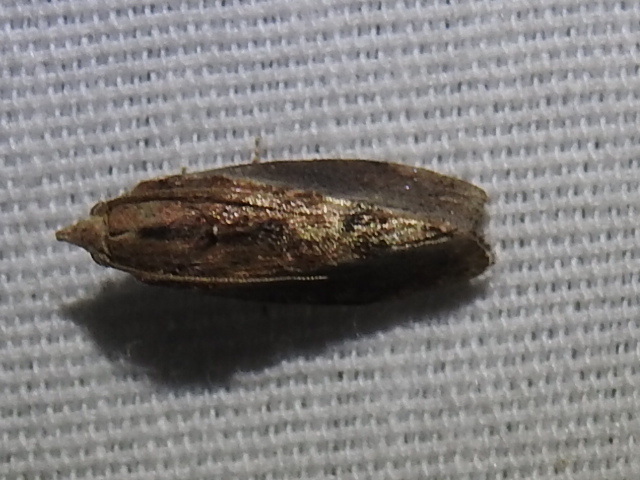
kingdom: Animalia
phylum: Arthropoda
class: Insecta
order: Lepidoptera
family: Pyralidae
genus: Galleria
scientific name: Galleria mellonella
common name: Greater wax moth
